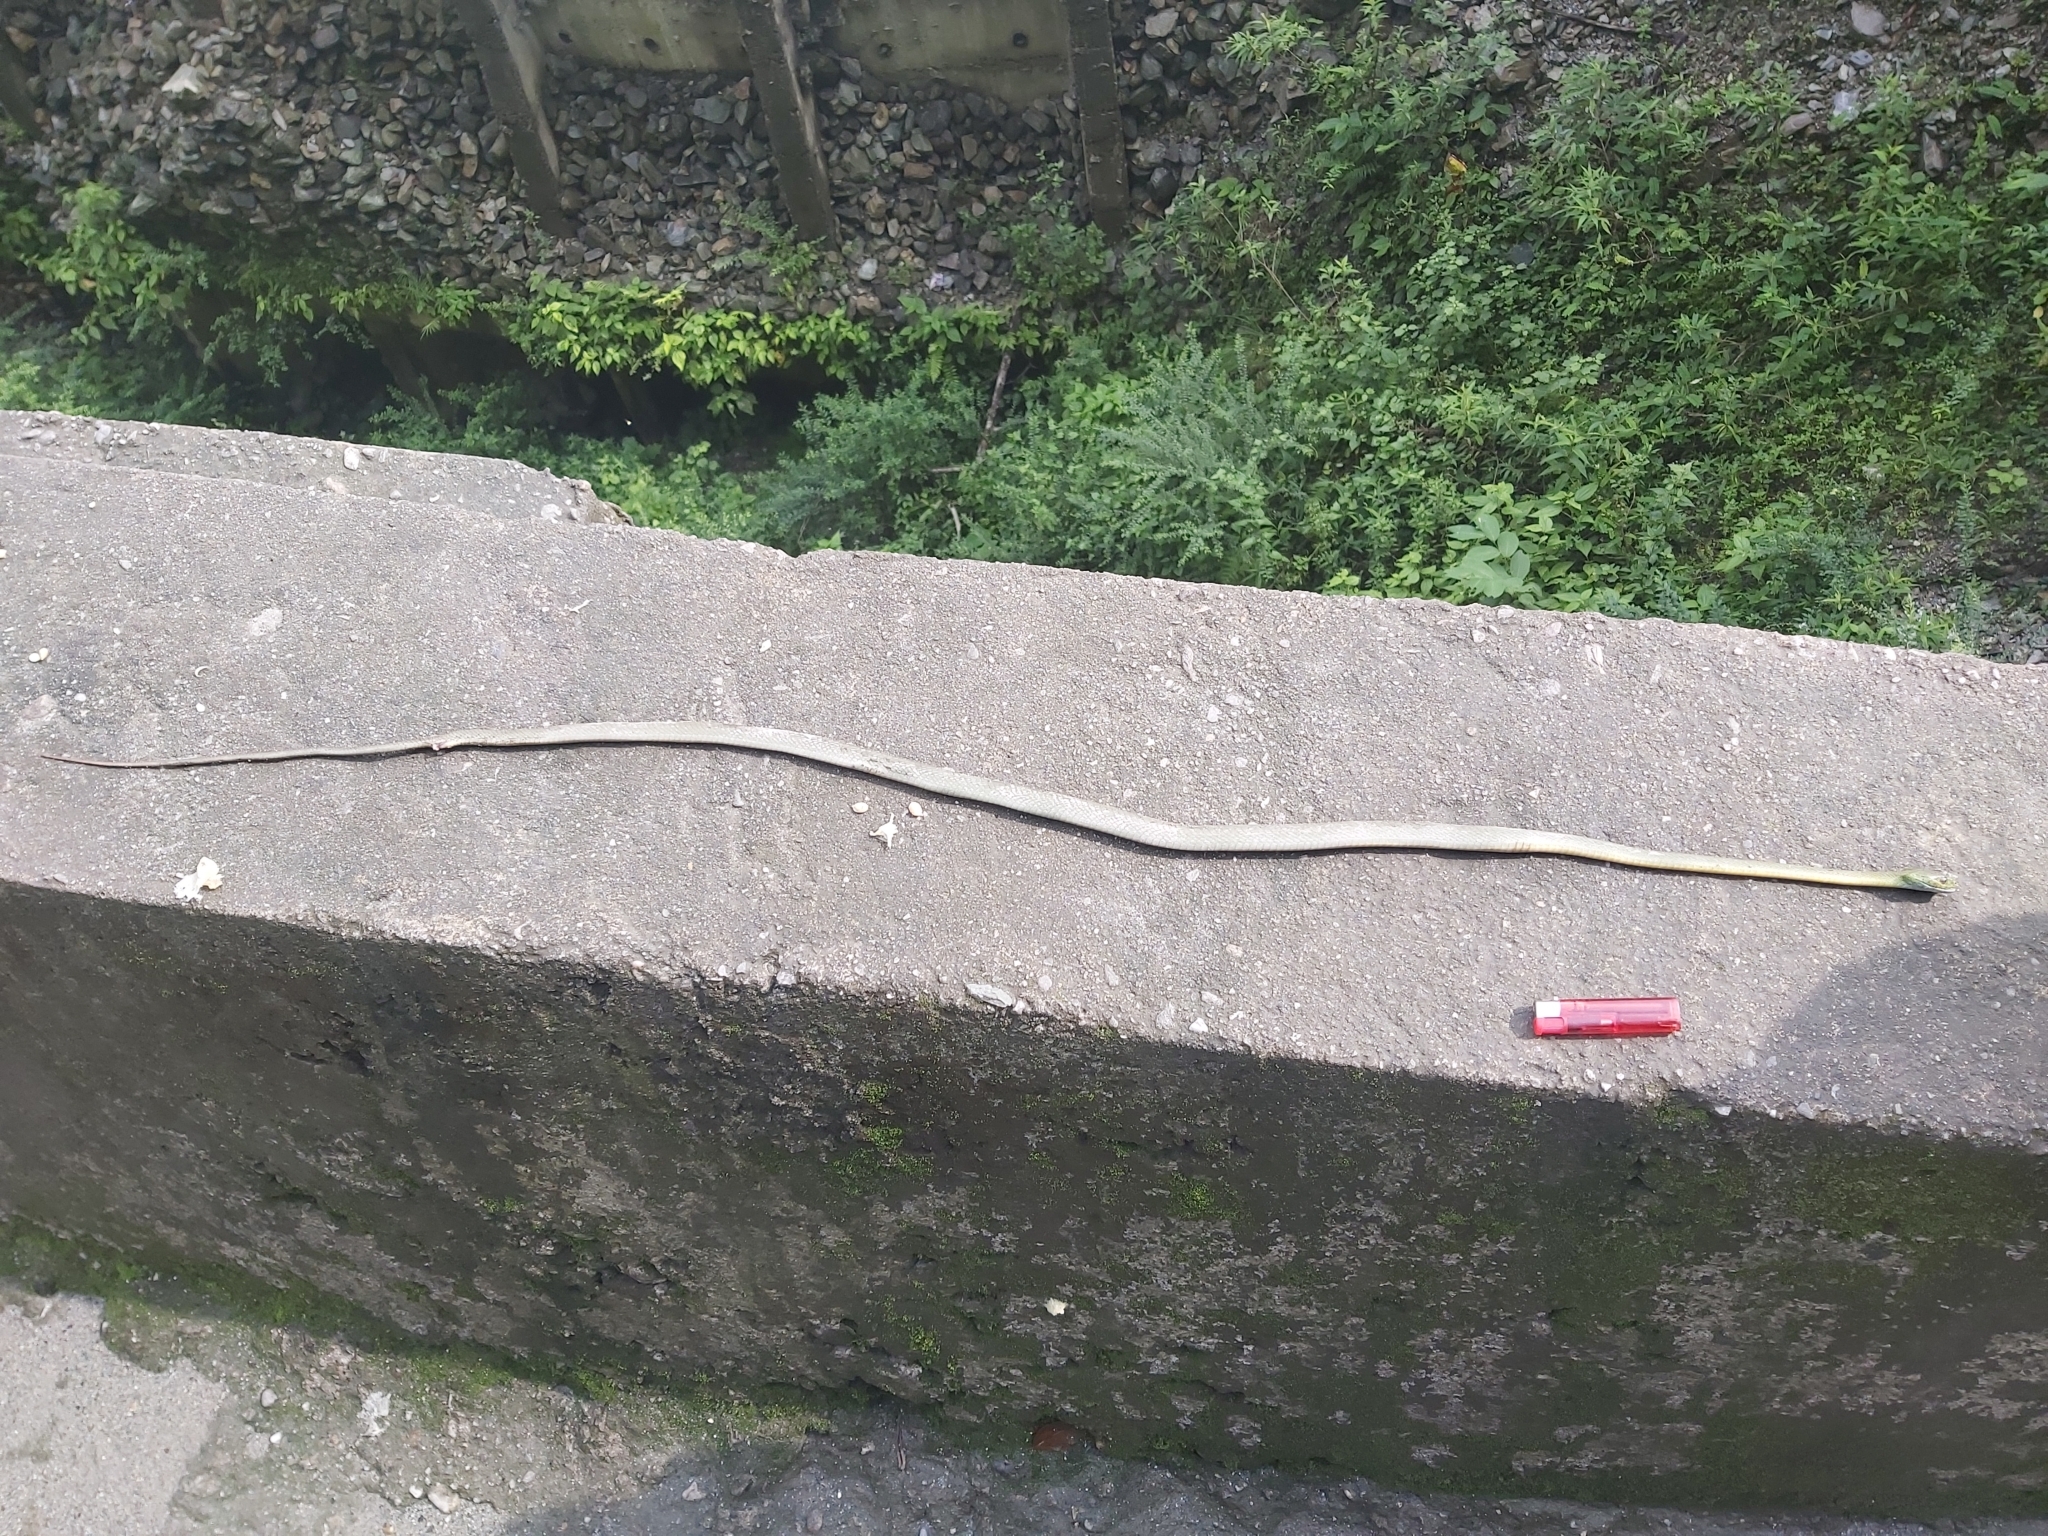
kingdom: Animalia
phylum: Chordata
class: Squamata
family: Colubridae
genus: Boiga
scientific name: Boiga cyanea
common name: Green cat snake
